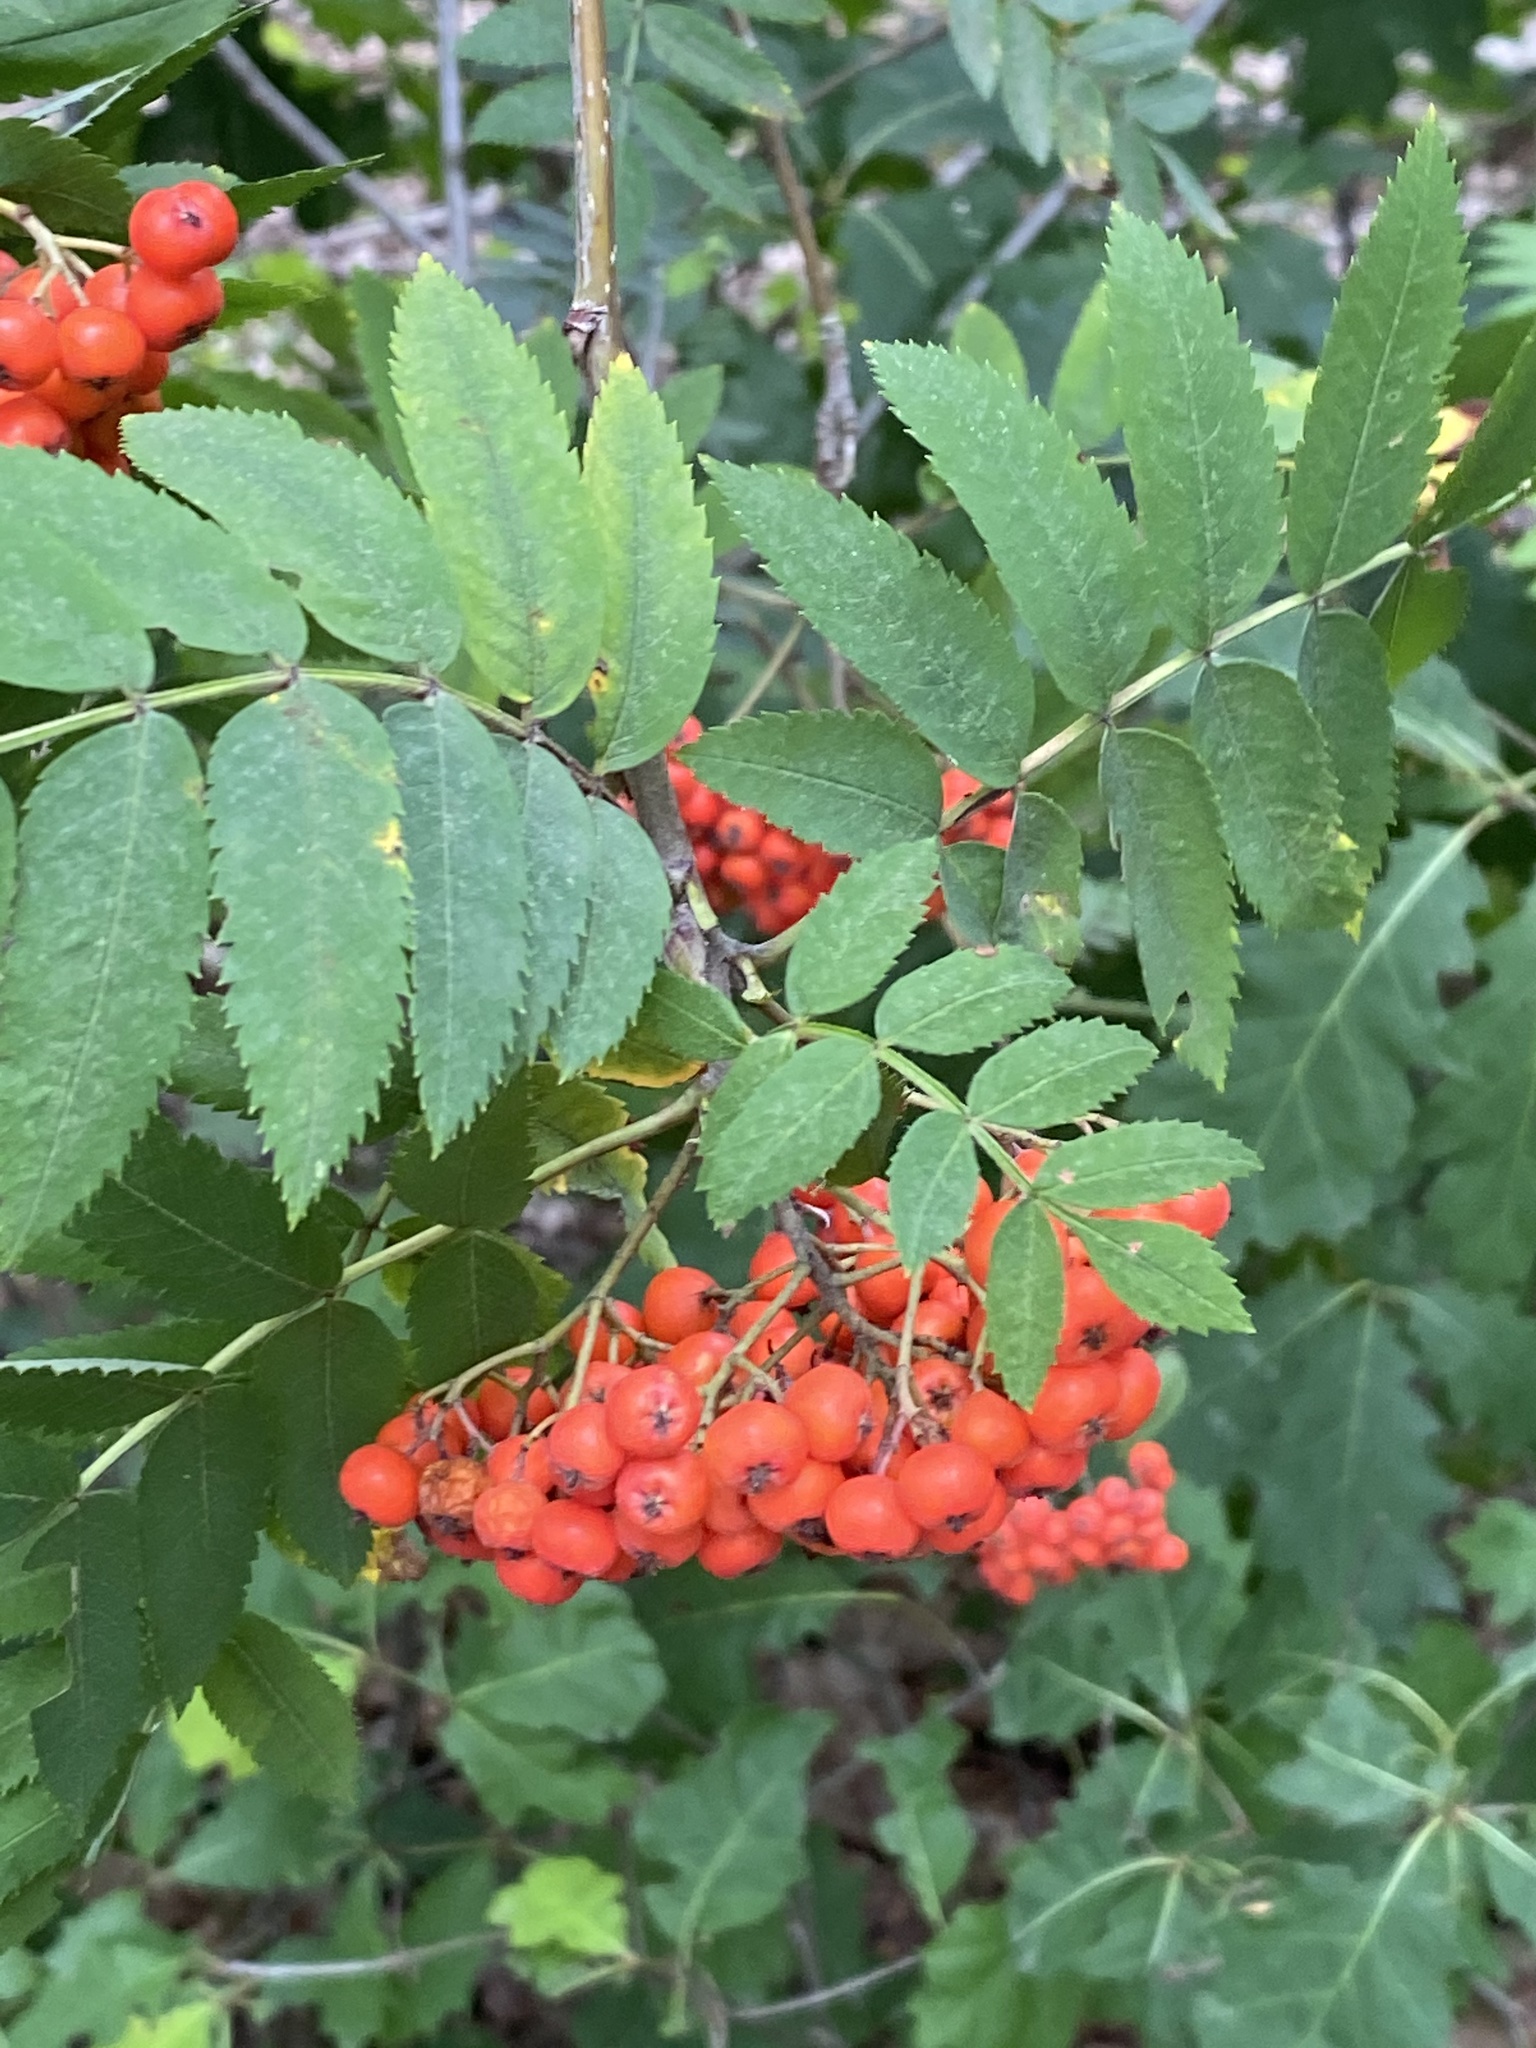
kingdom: Plantae
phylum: Tracheophyta
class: Magnoliopsida
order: Rosales
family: Rosaceae
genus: Sorbus
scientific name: Sorbus aucuparia
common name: Rowan
